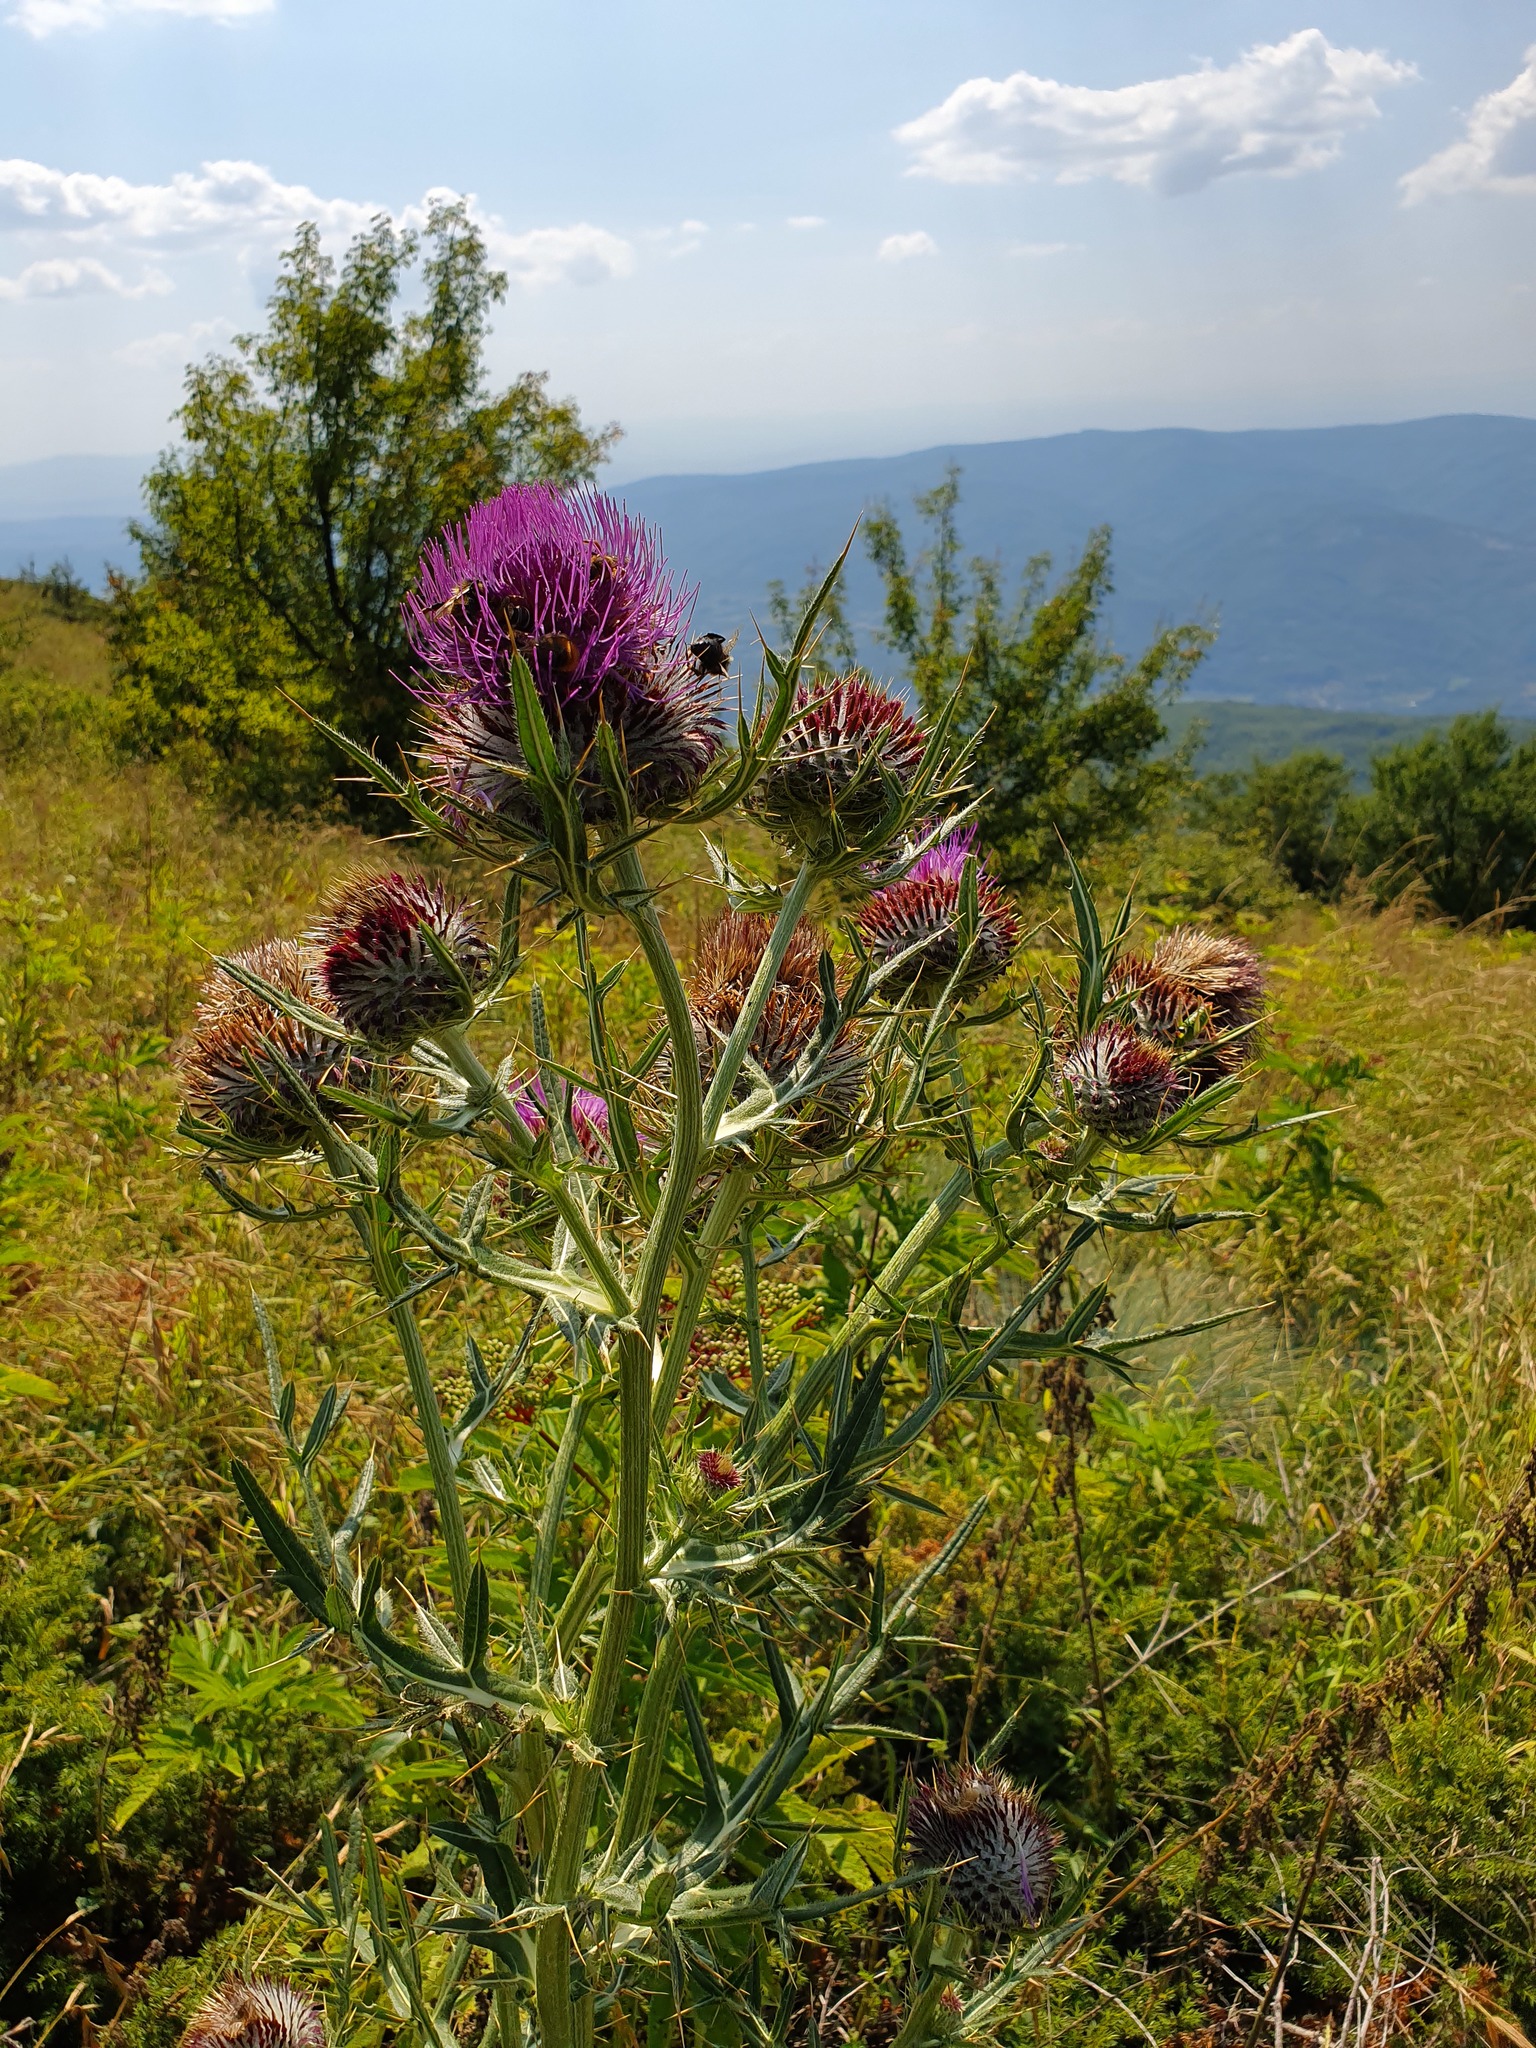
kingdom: Plantae
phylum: Tracheophyta
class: Magnoliopsida
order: Asterales
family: Asteraceae
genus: Lophiolepis
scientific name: Lophiolepis eriophora
